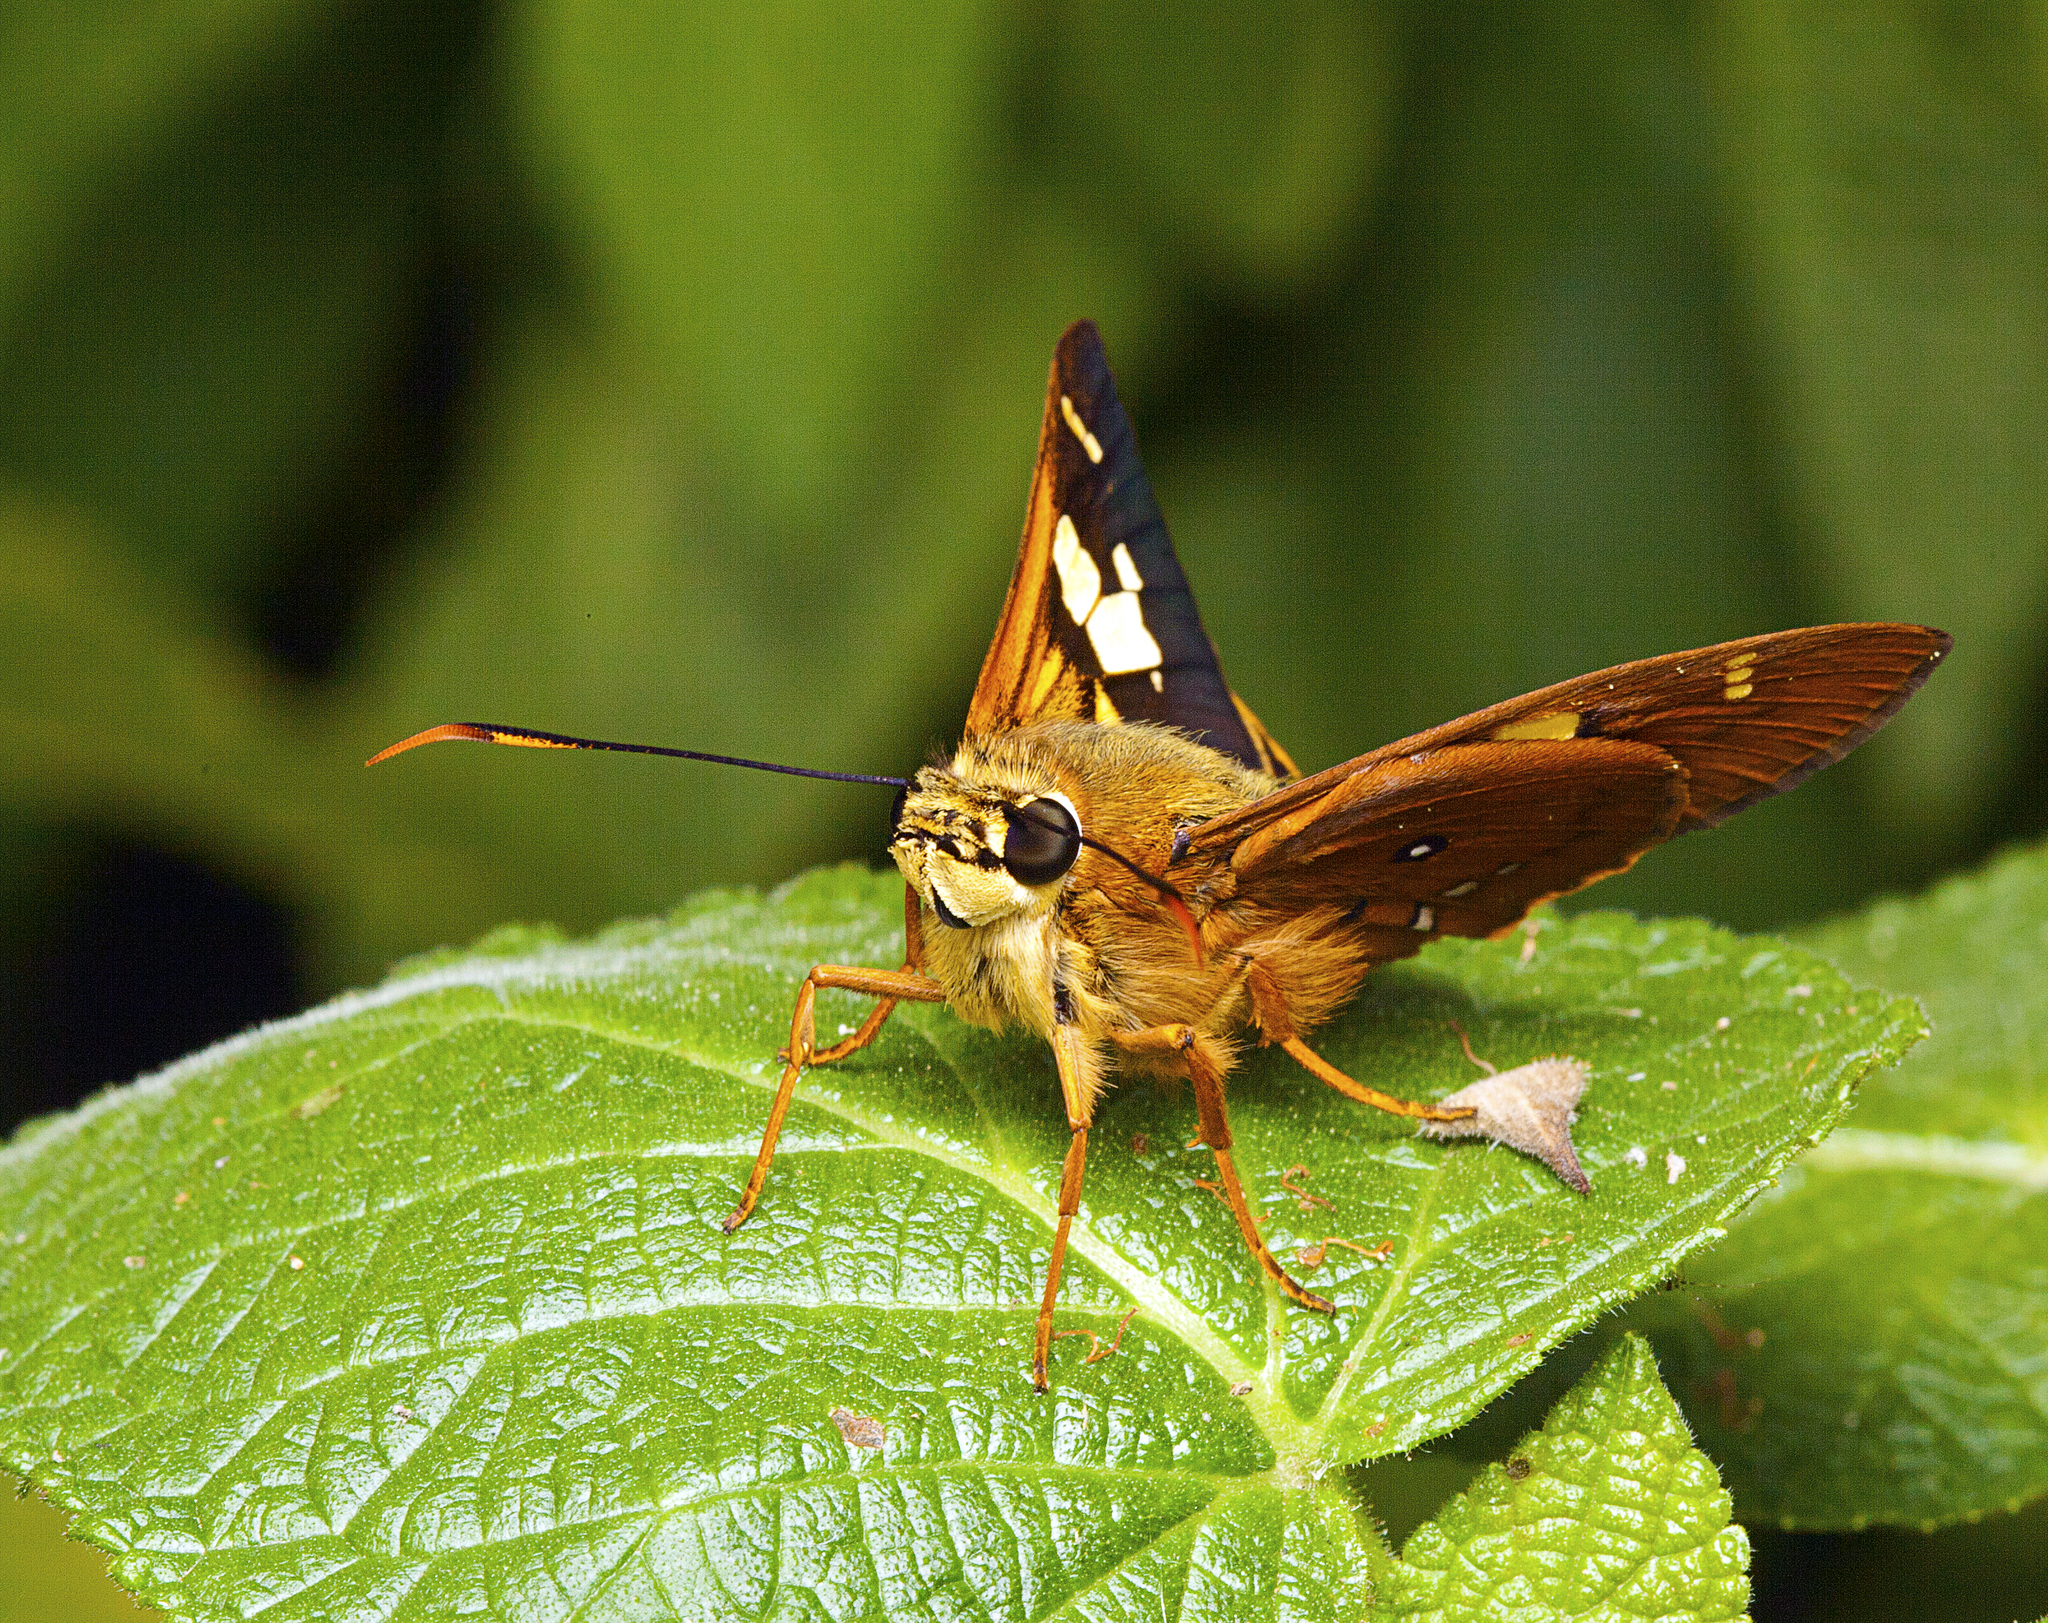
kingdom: Animalia
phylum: Arthropoda
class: Insecta
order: Lepidoptera
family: Hesperiidae
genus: Trapezites
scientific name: Trapezites symmomus
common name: Splendid ochre
